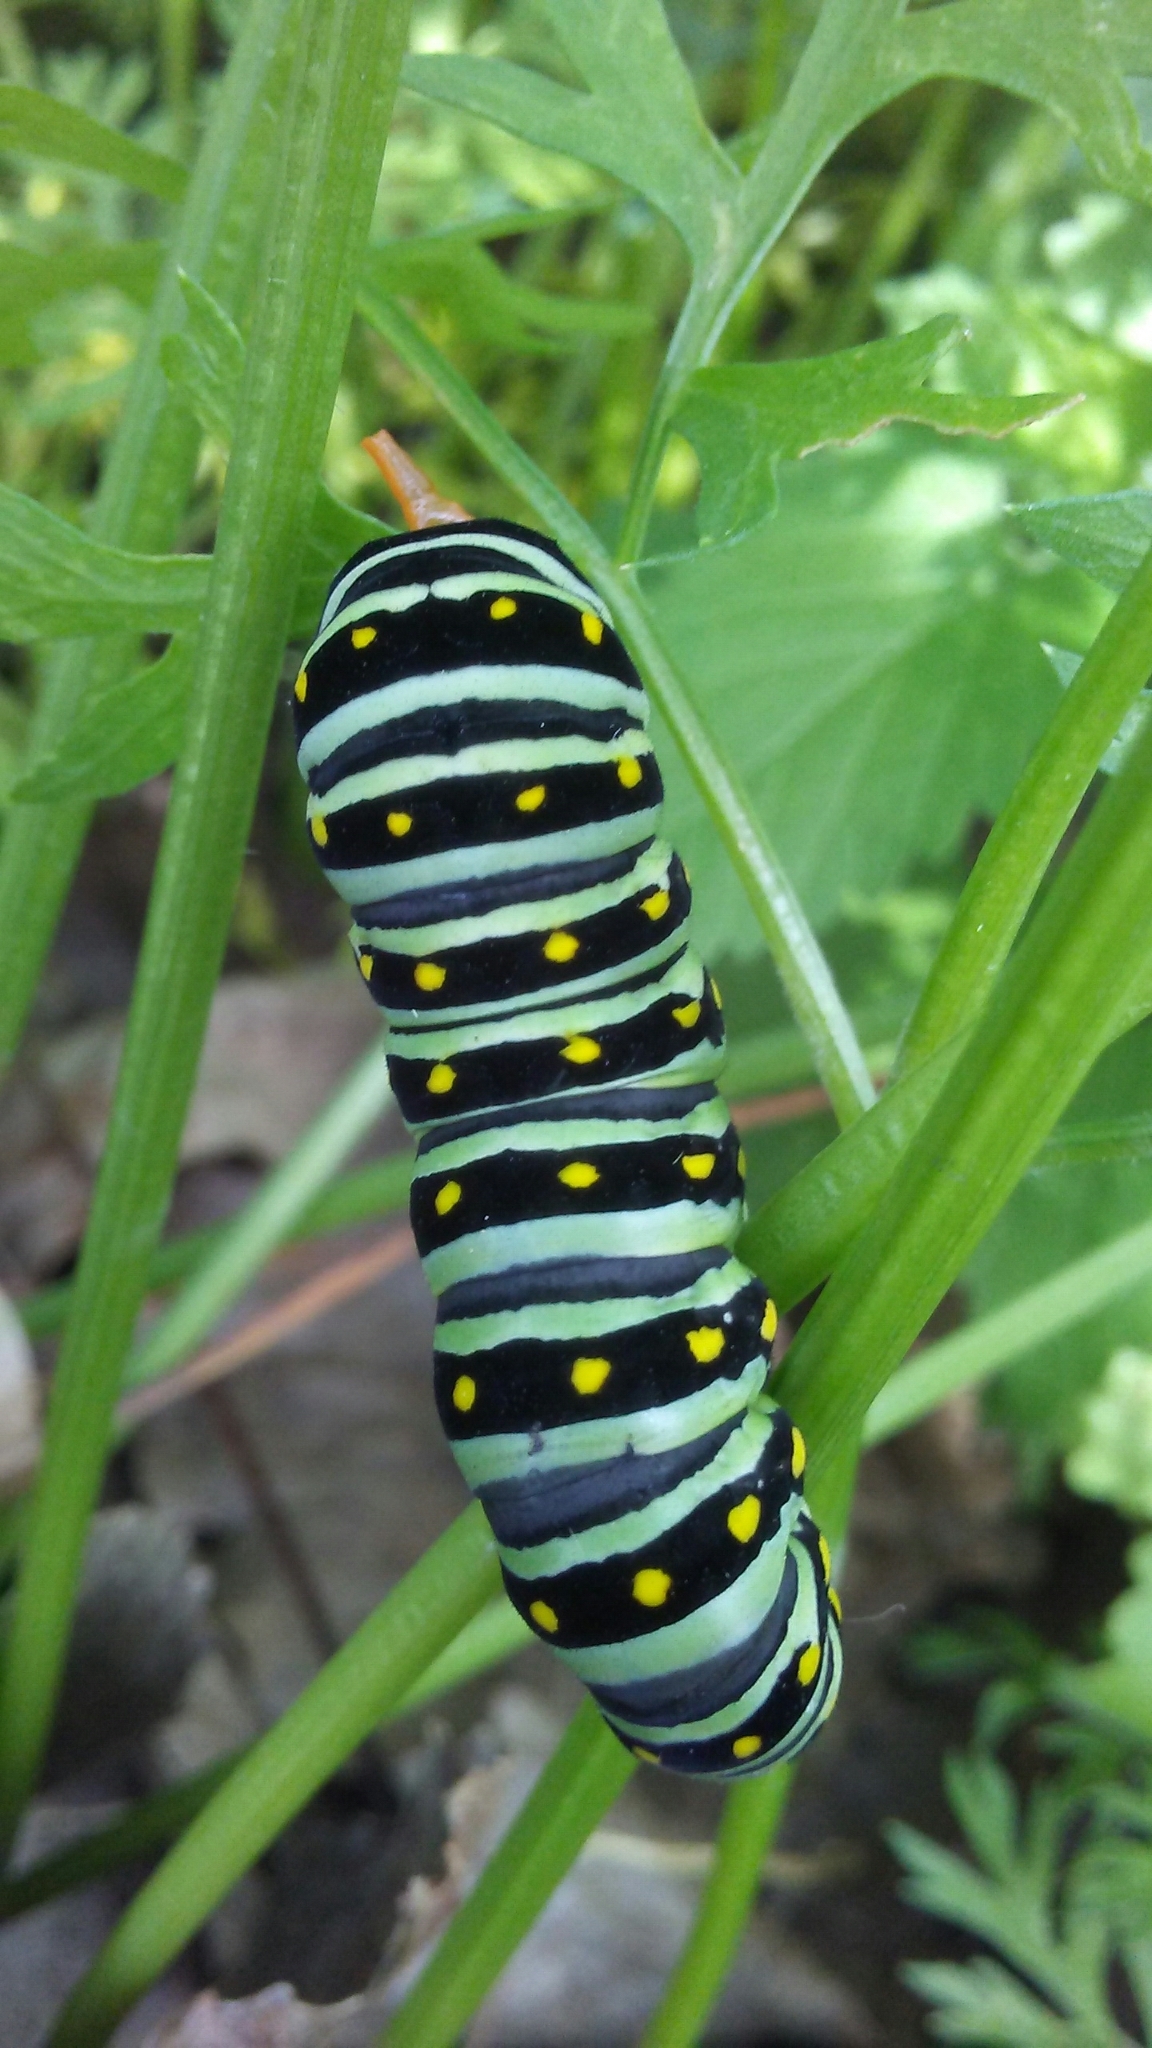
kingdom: Animalia
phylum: Arthropoda
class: Insecta
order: Lepidoptera
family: Papilionidae
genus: Papilio
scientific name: Papilio polyxenes
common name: Black swallowtail
